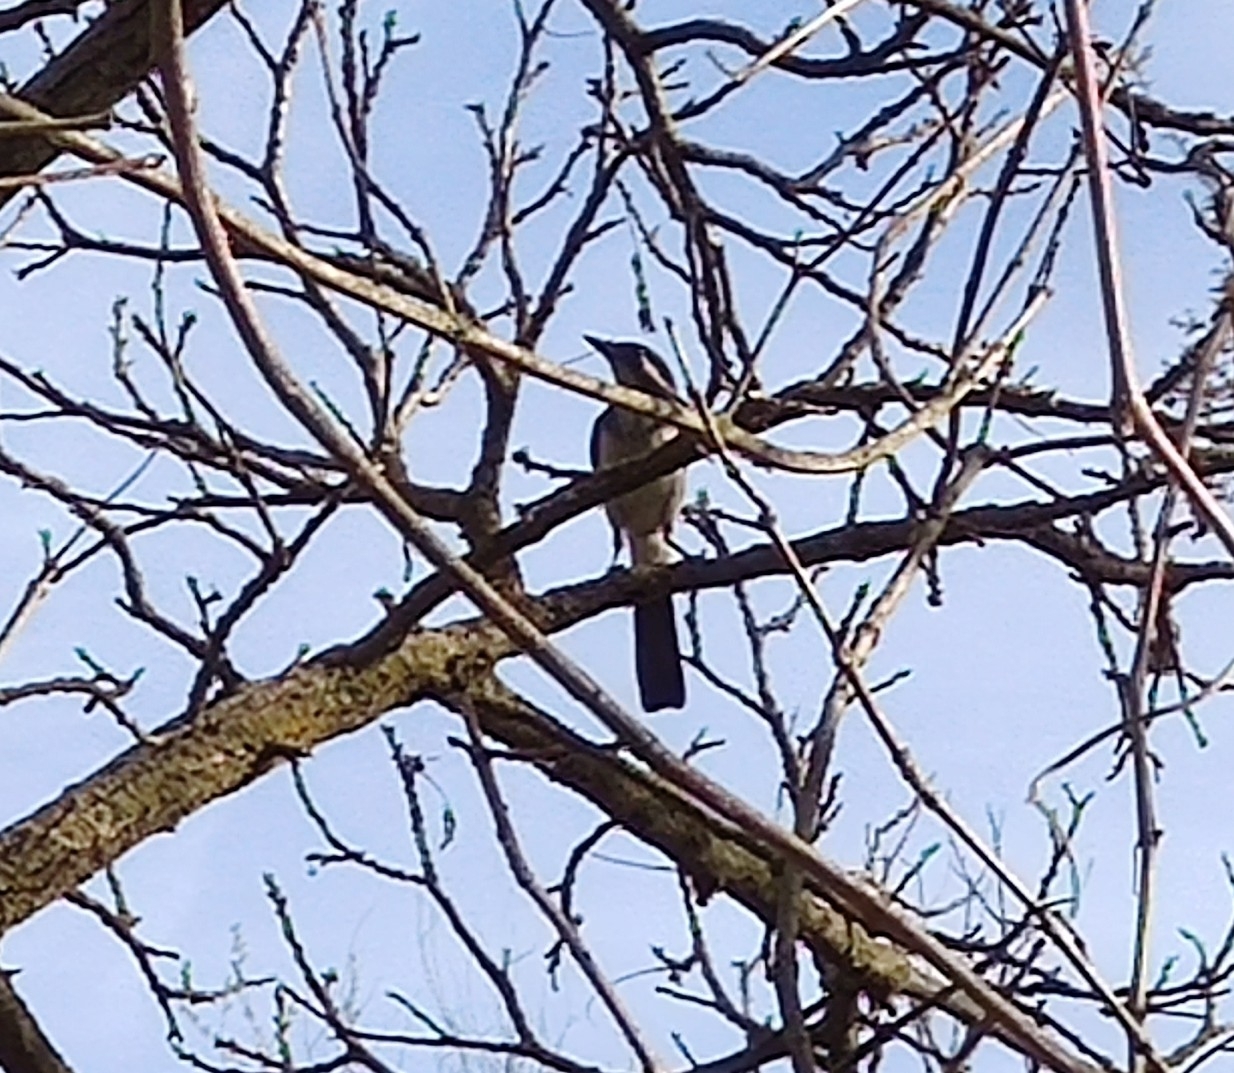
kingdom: Animalia
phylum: Chordata
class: Aves
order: Passeriformes
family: Corvidae
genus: Aphelocoma
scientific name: Aphelocoma californica
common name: California scrub-jay
